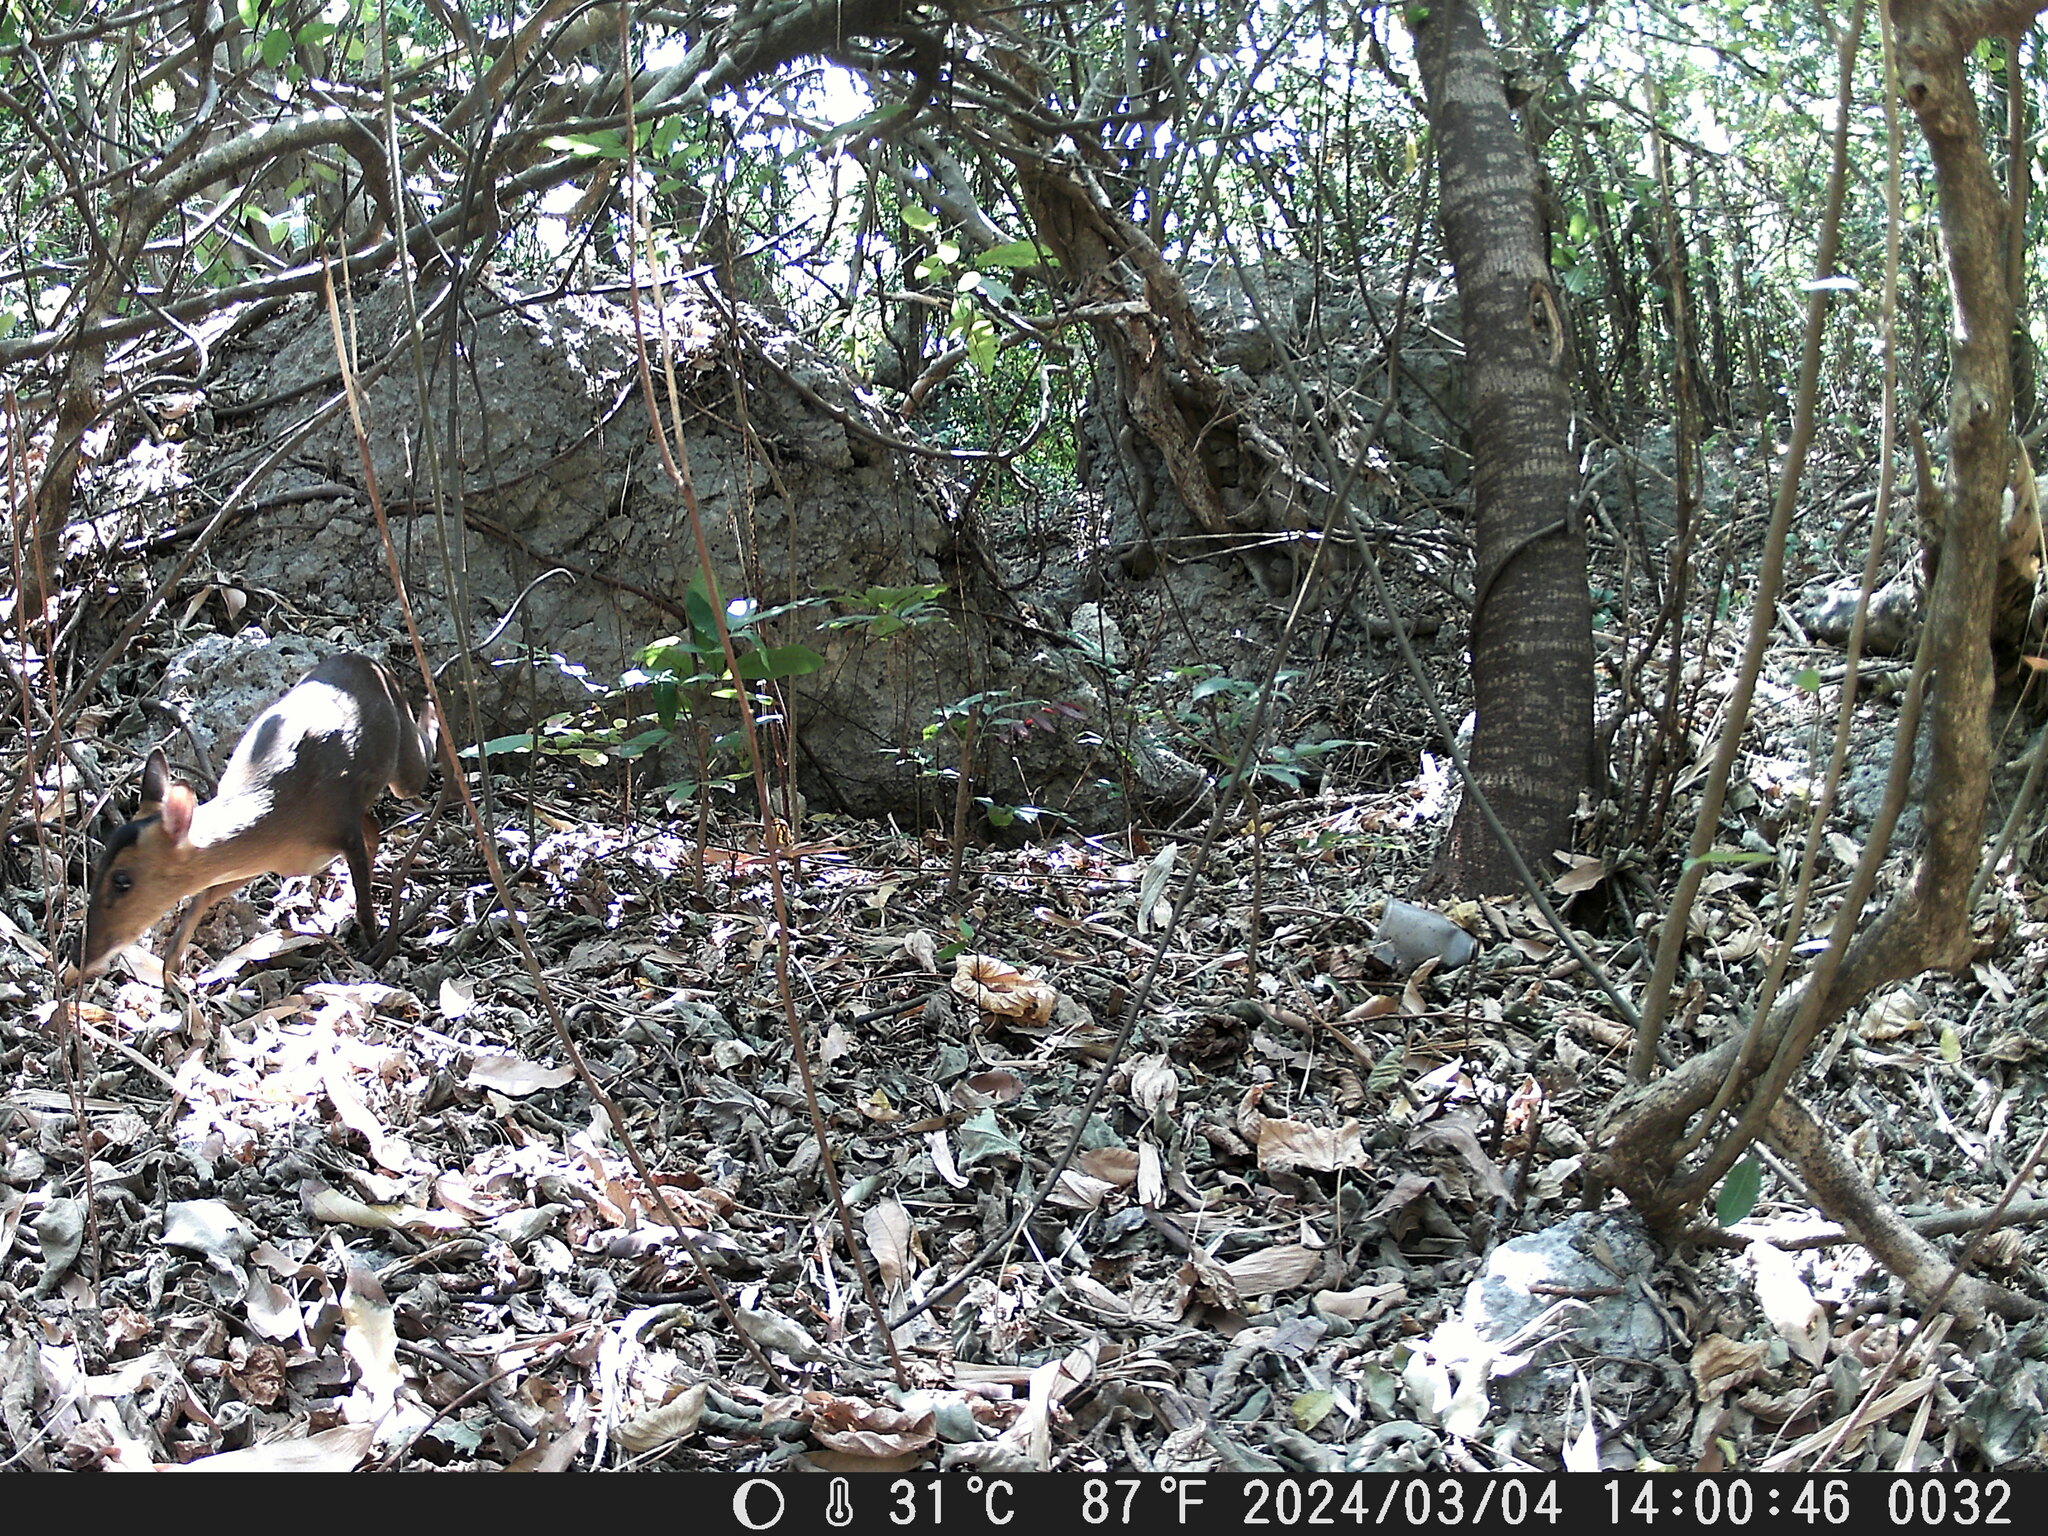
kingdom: Animalia
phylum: Chordata
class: Mammalia
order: Artiodactyla
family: Cervidae
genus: Muntiacus
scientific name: Muntiacus reevesi
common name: Reeves' muntjac
